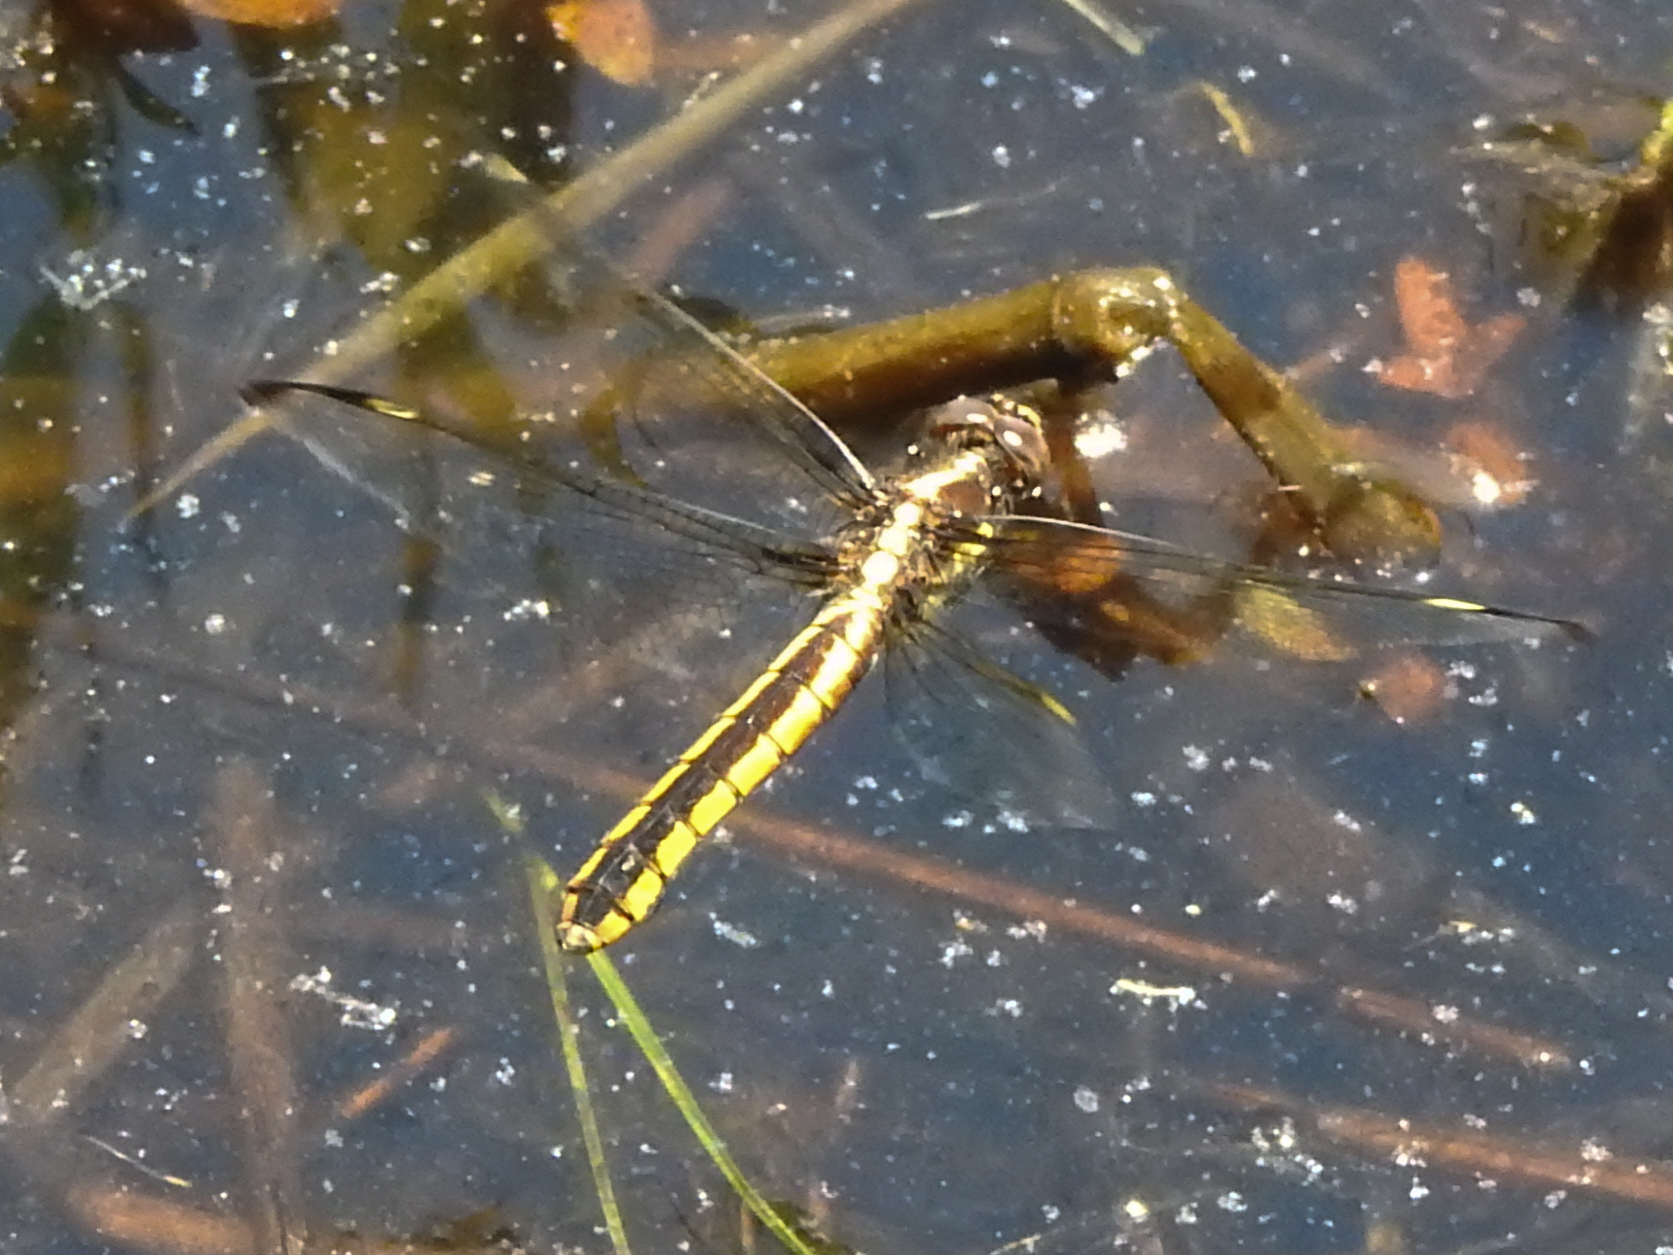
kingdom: Animalia
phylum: Arthropoda
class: Insecta
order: Odonata
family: Libellulidae
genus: Libellula
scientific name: Libellula cyanea
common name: Spangled skimmer
